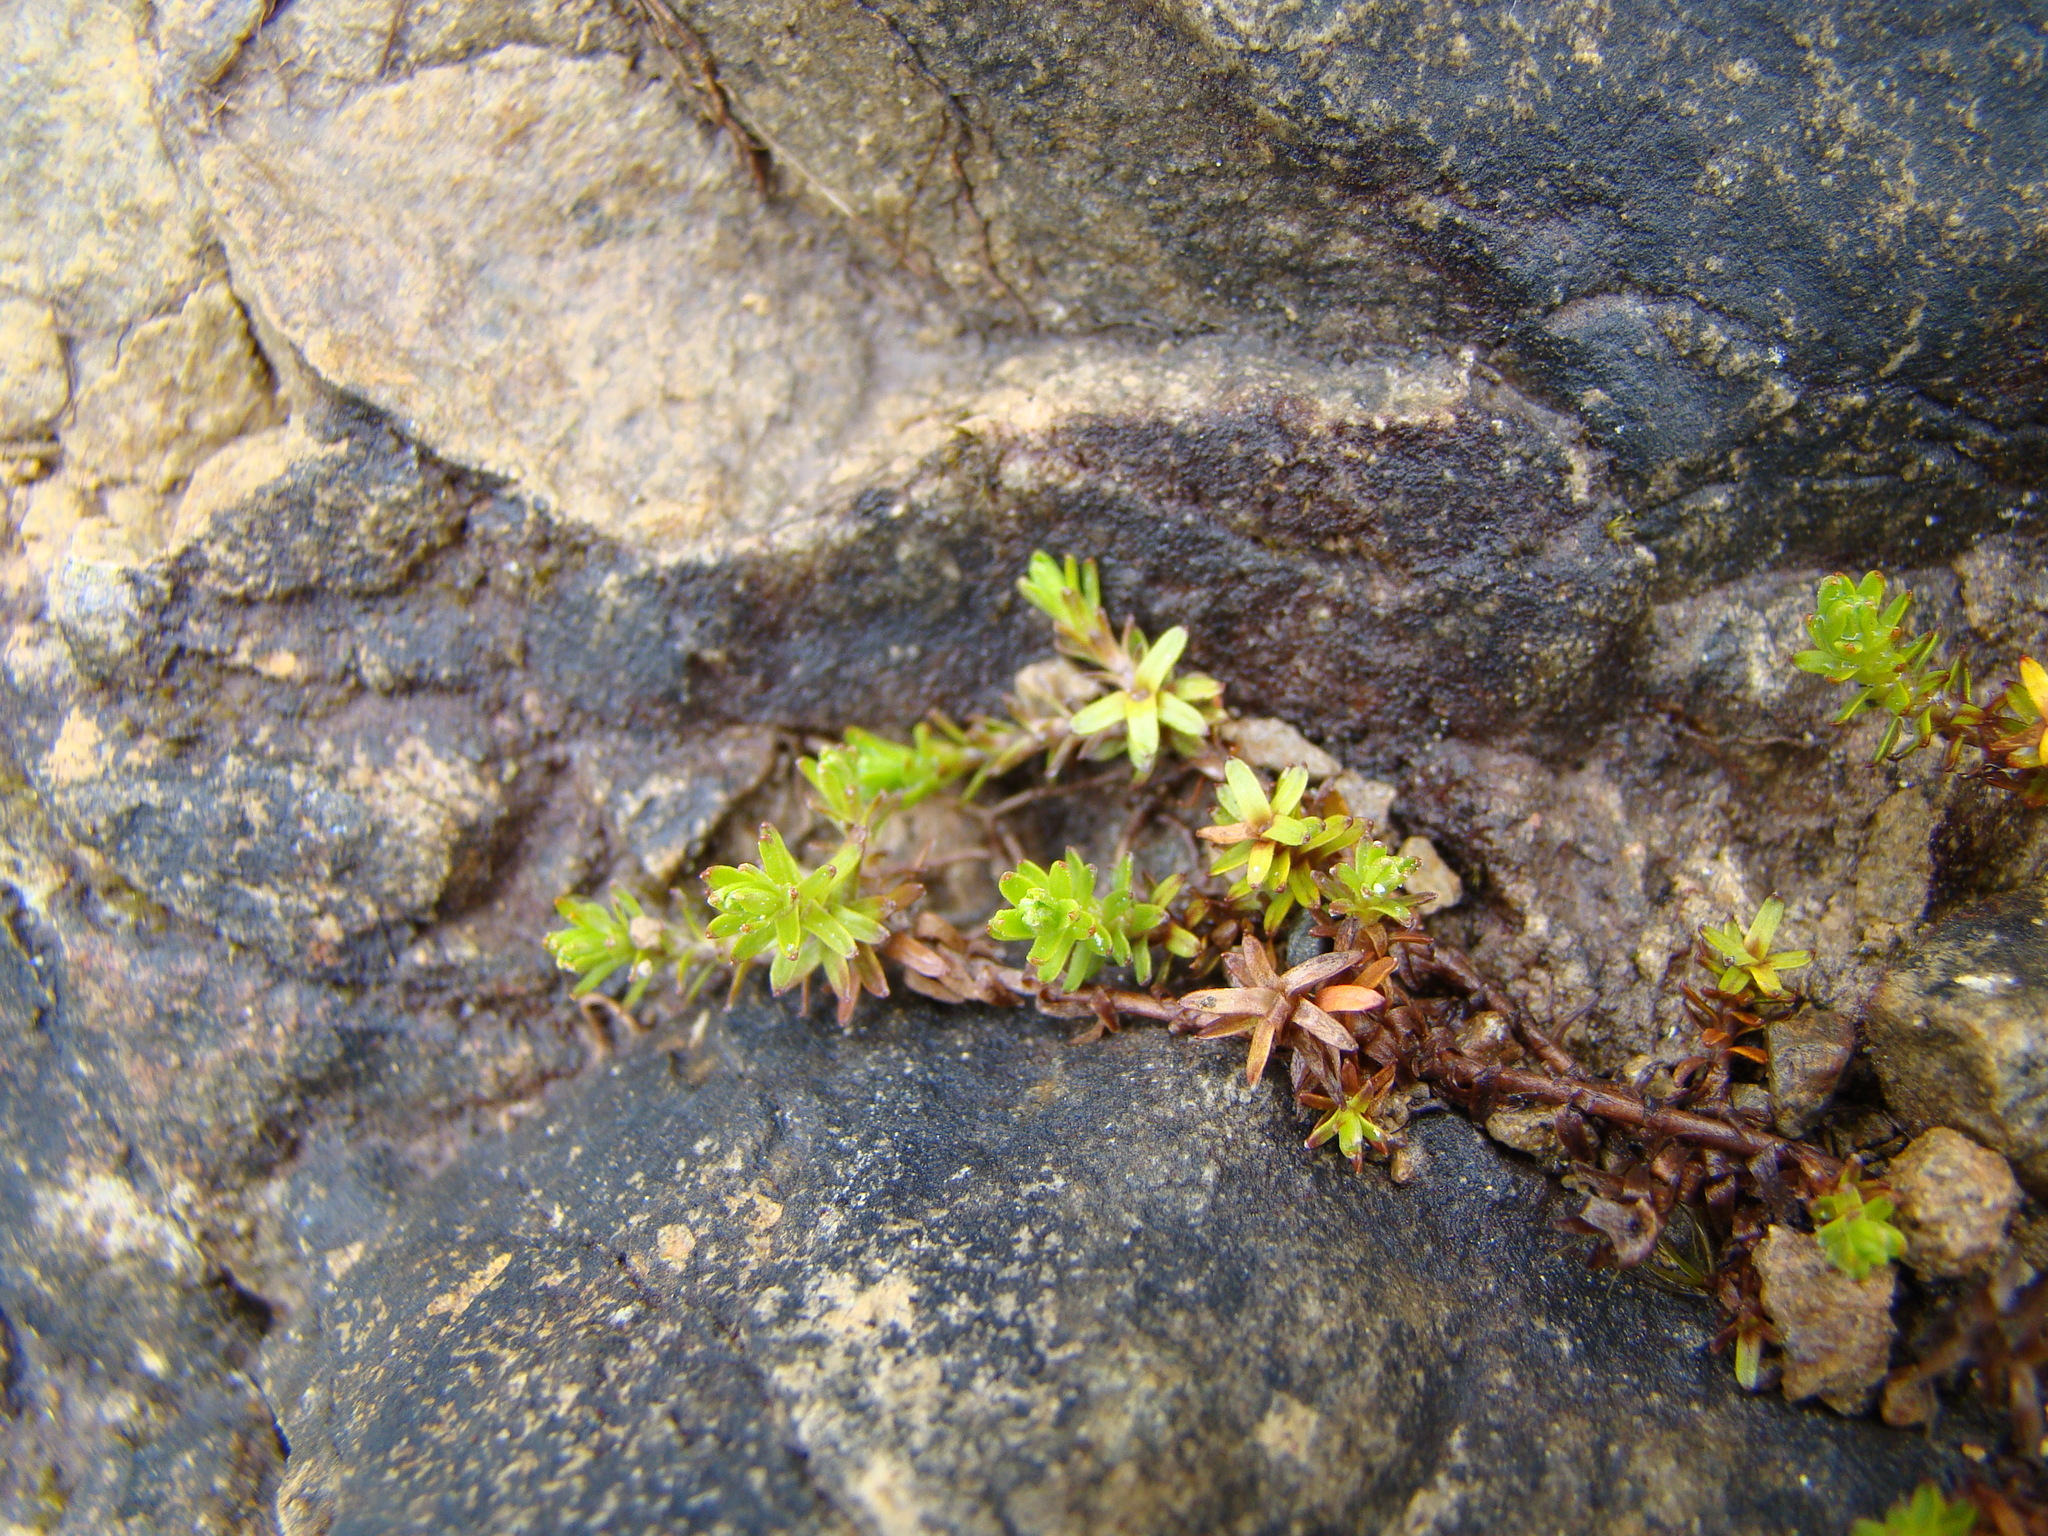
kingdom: Plantae
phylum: Tracheophyta
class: Magnoliopsida
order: Asterales
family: Asteraceae
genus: Raoulia
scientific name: Raoulia glabra
